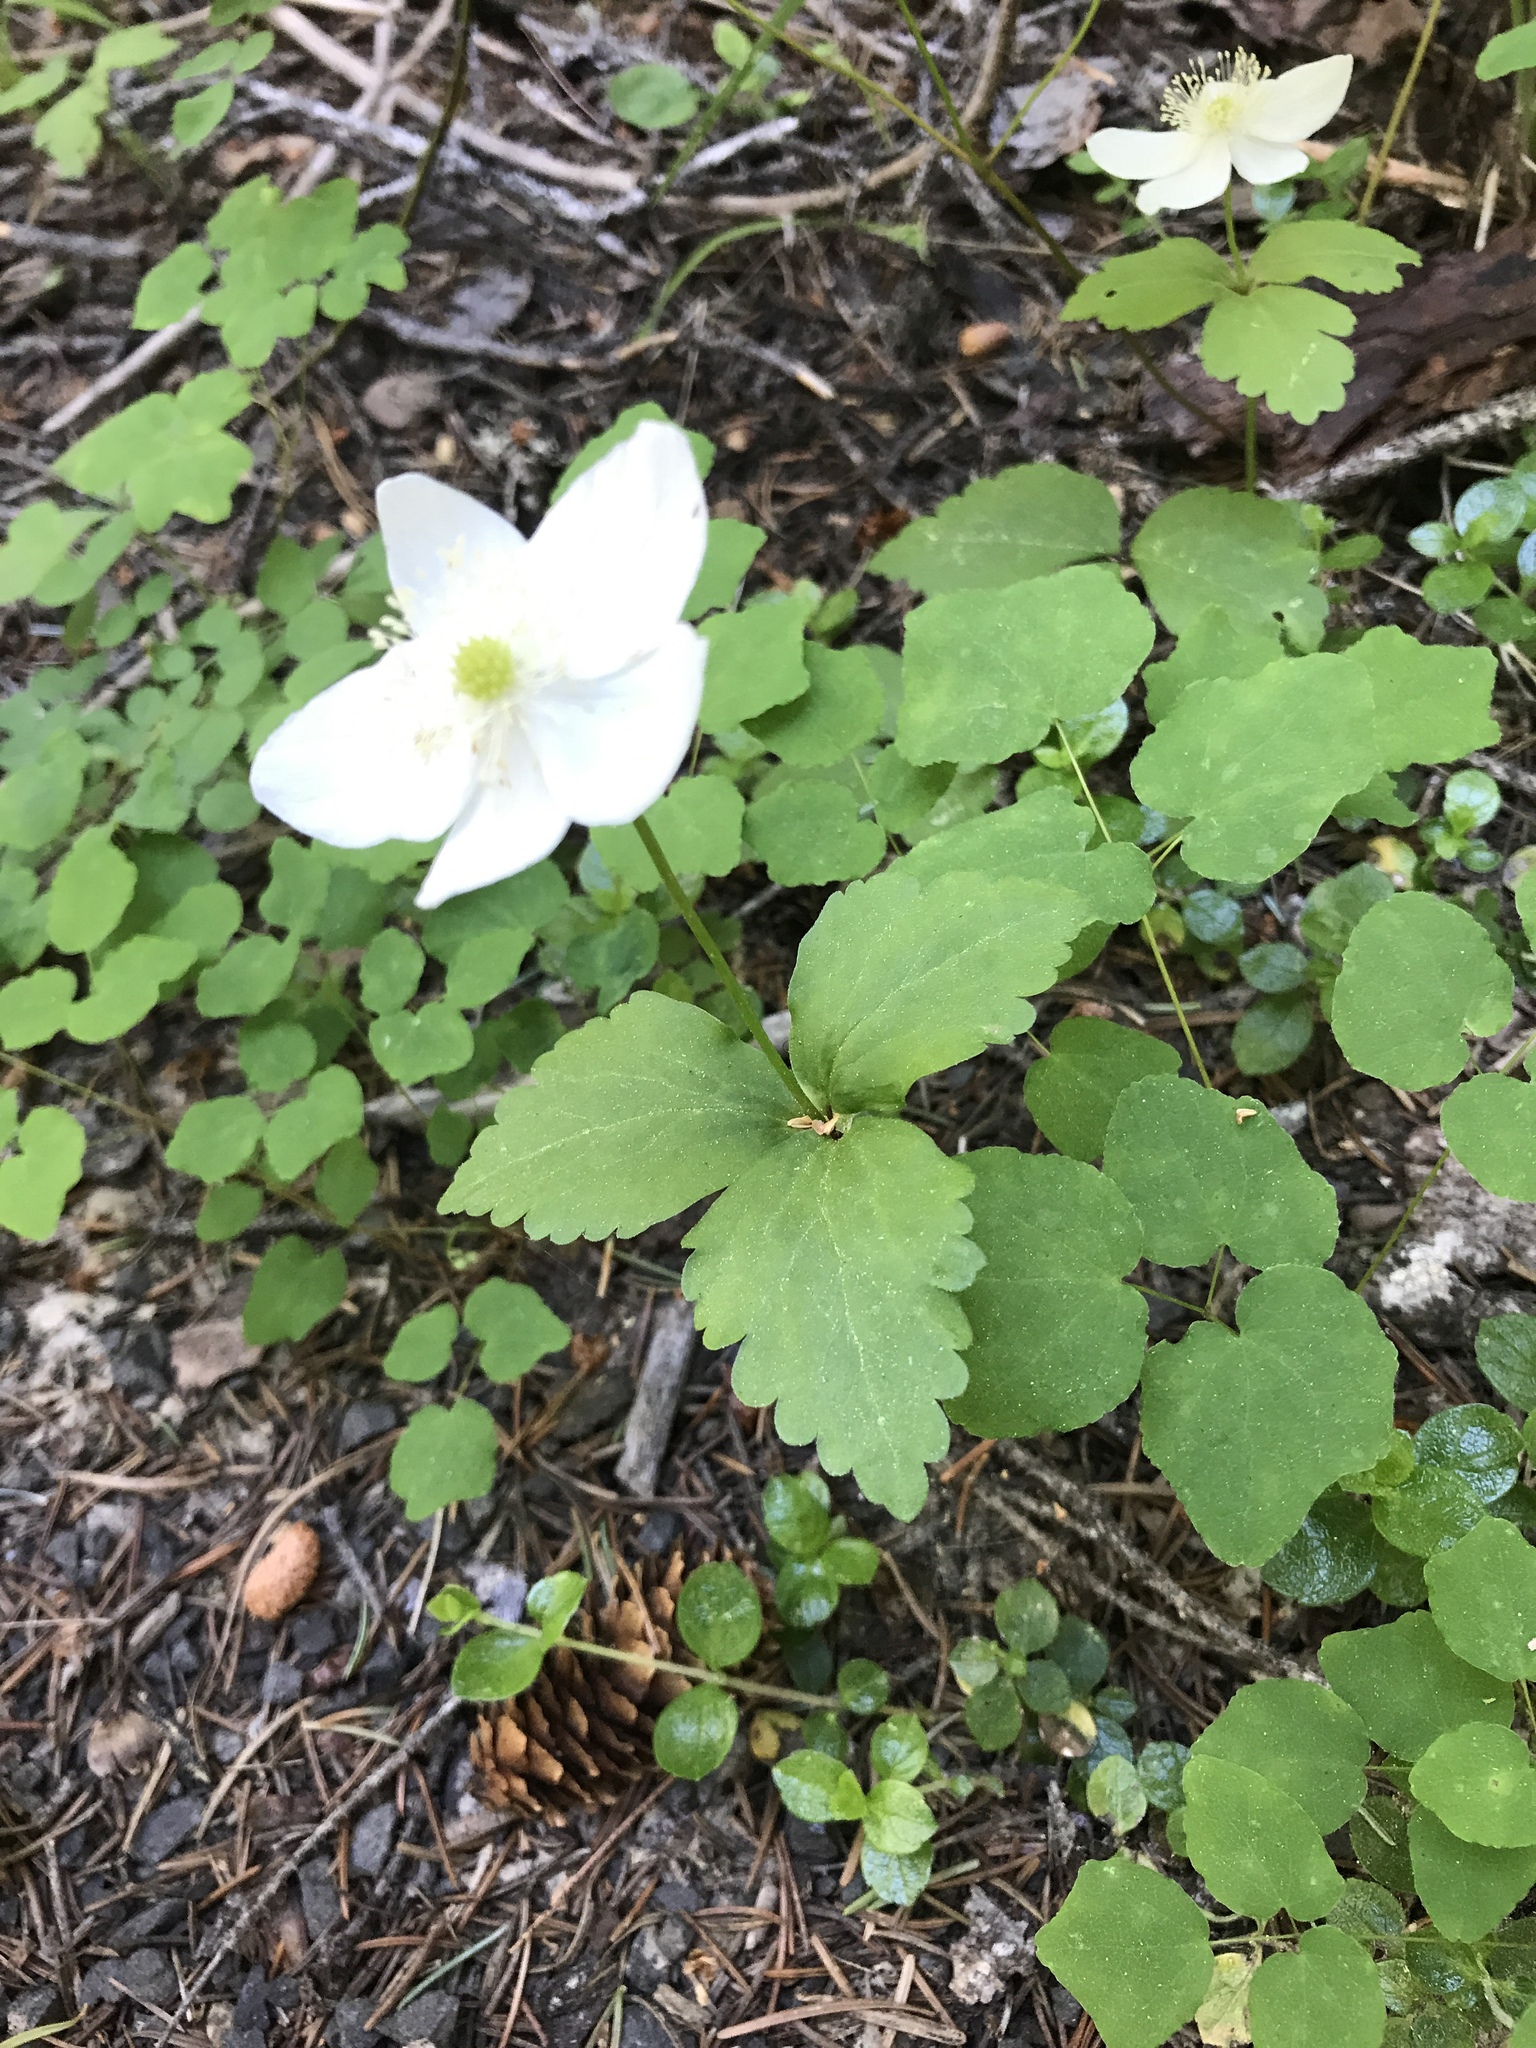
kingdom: Plantae
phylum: Tracheophyta
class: Magnoliopsida
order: Ranunculales
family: Ranunculaceae
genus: Anemonastrum
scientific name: Anemonastrum deltoideum
